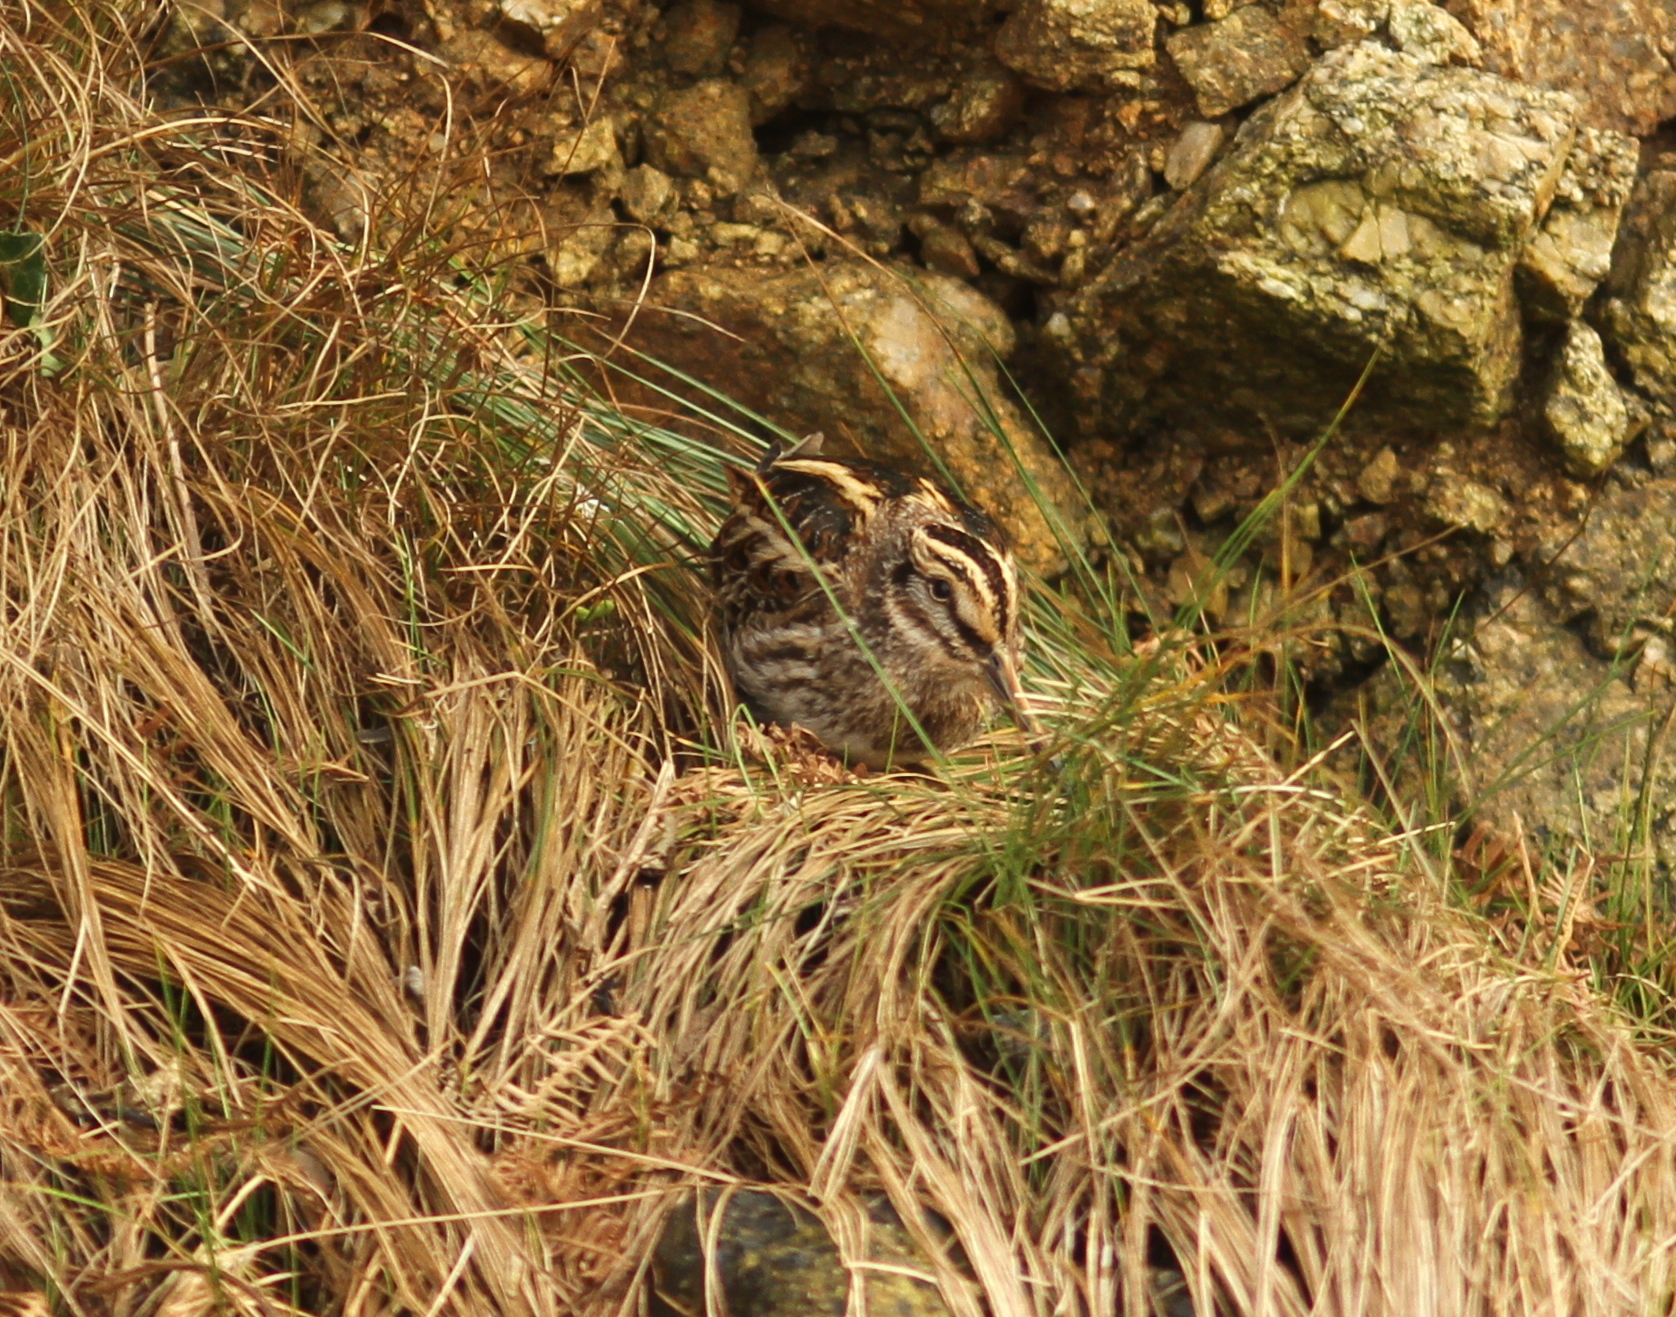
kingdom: Animalia
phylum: Chordata
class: Aves
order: Charadriiformes
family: Scolopacidae
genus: Lymnocryptes
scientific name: Lymnocryptes minimus
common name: Jack snipe
